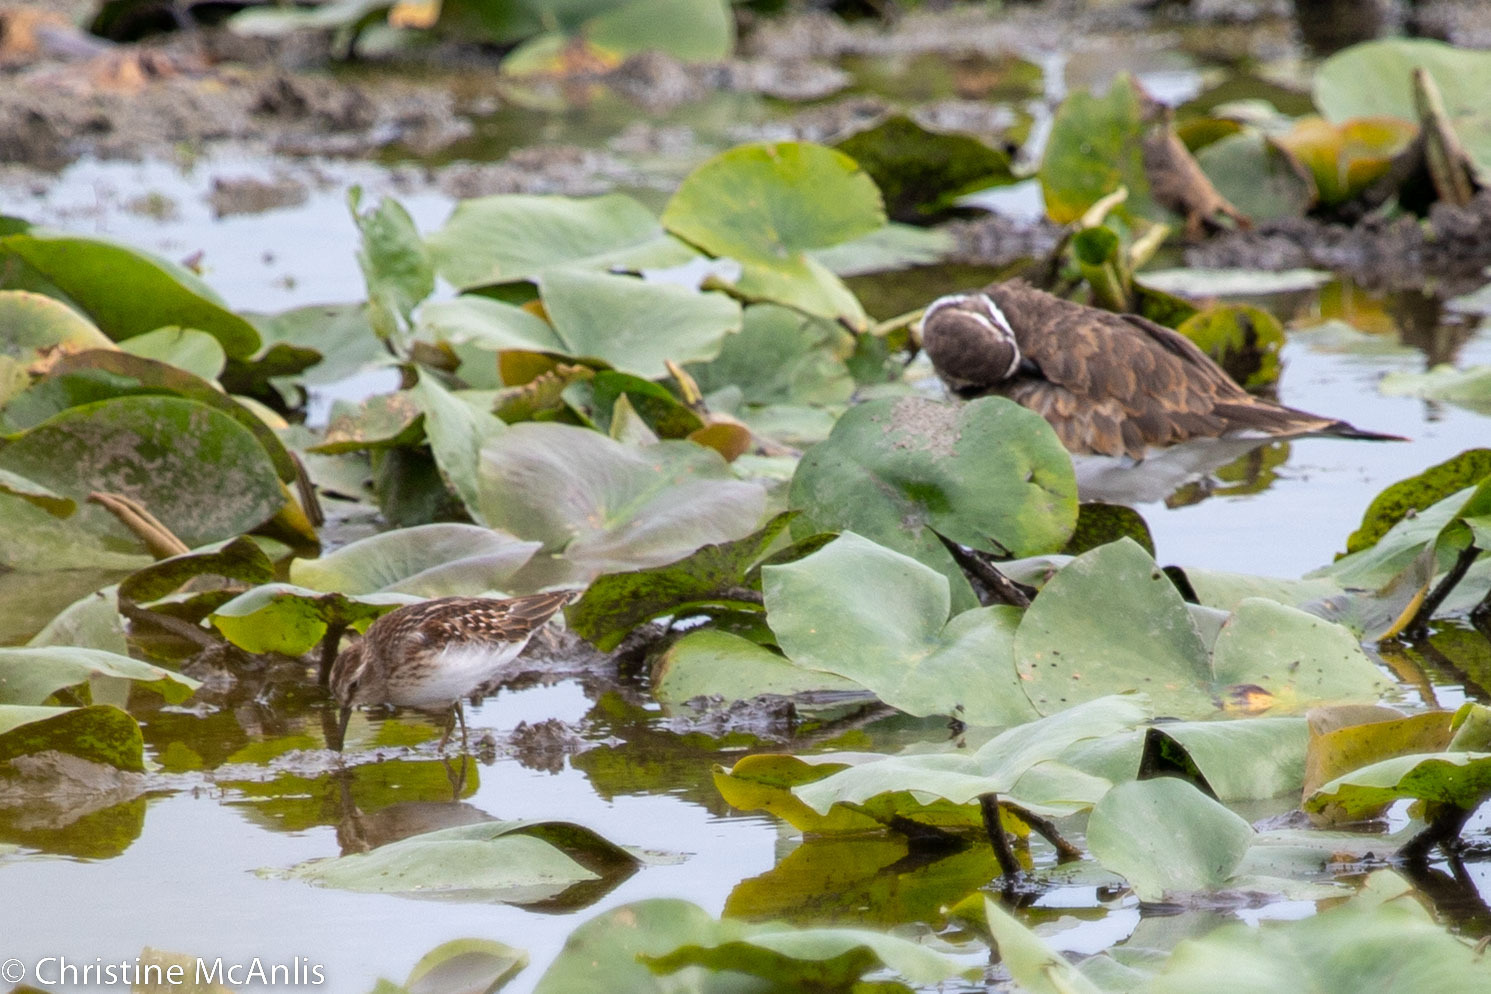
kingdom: Animalia
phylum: Chordata
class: Aves
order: Charadriiformes
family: Scolopacidae
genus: Calidris
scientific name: Calidris minutilla
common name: Least sandpiper
